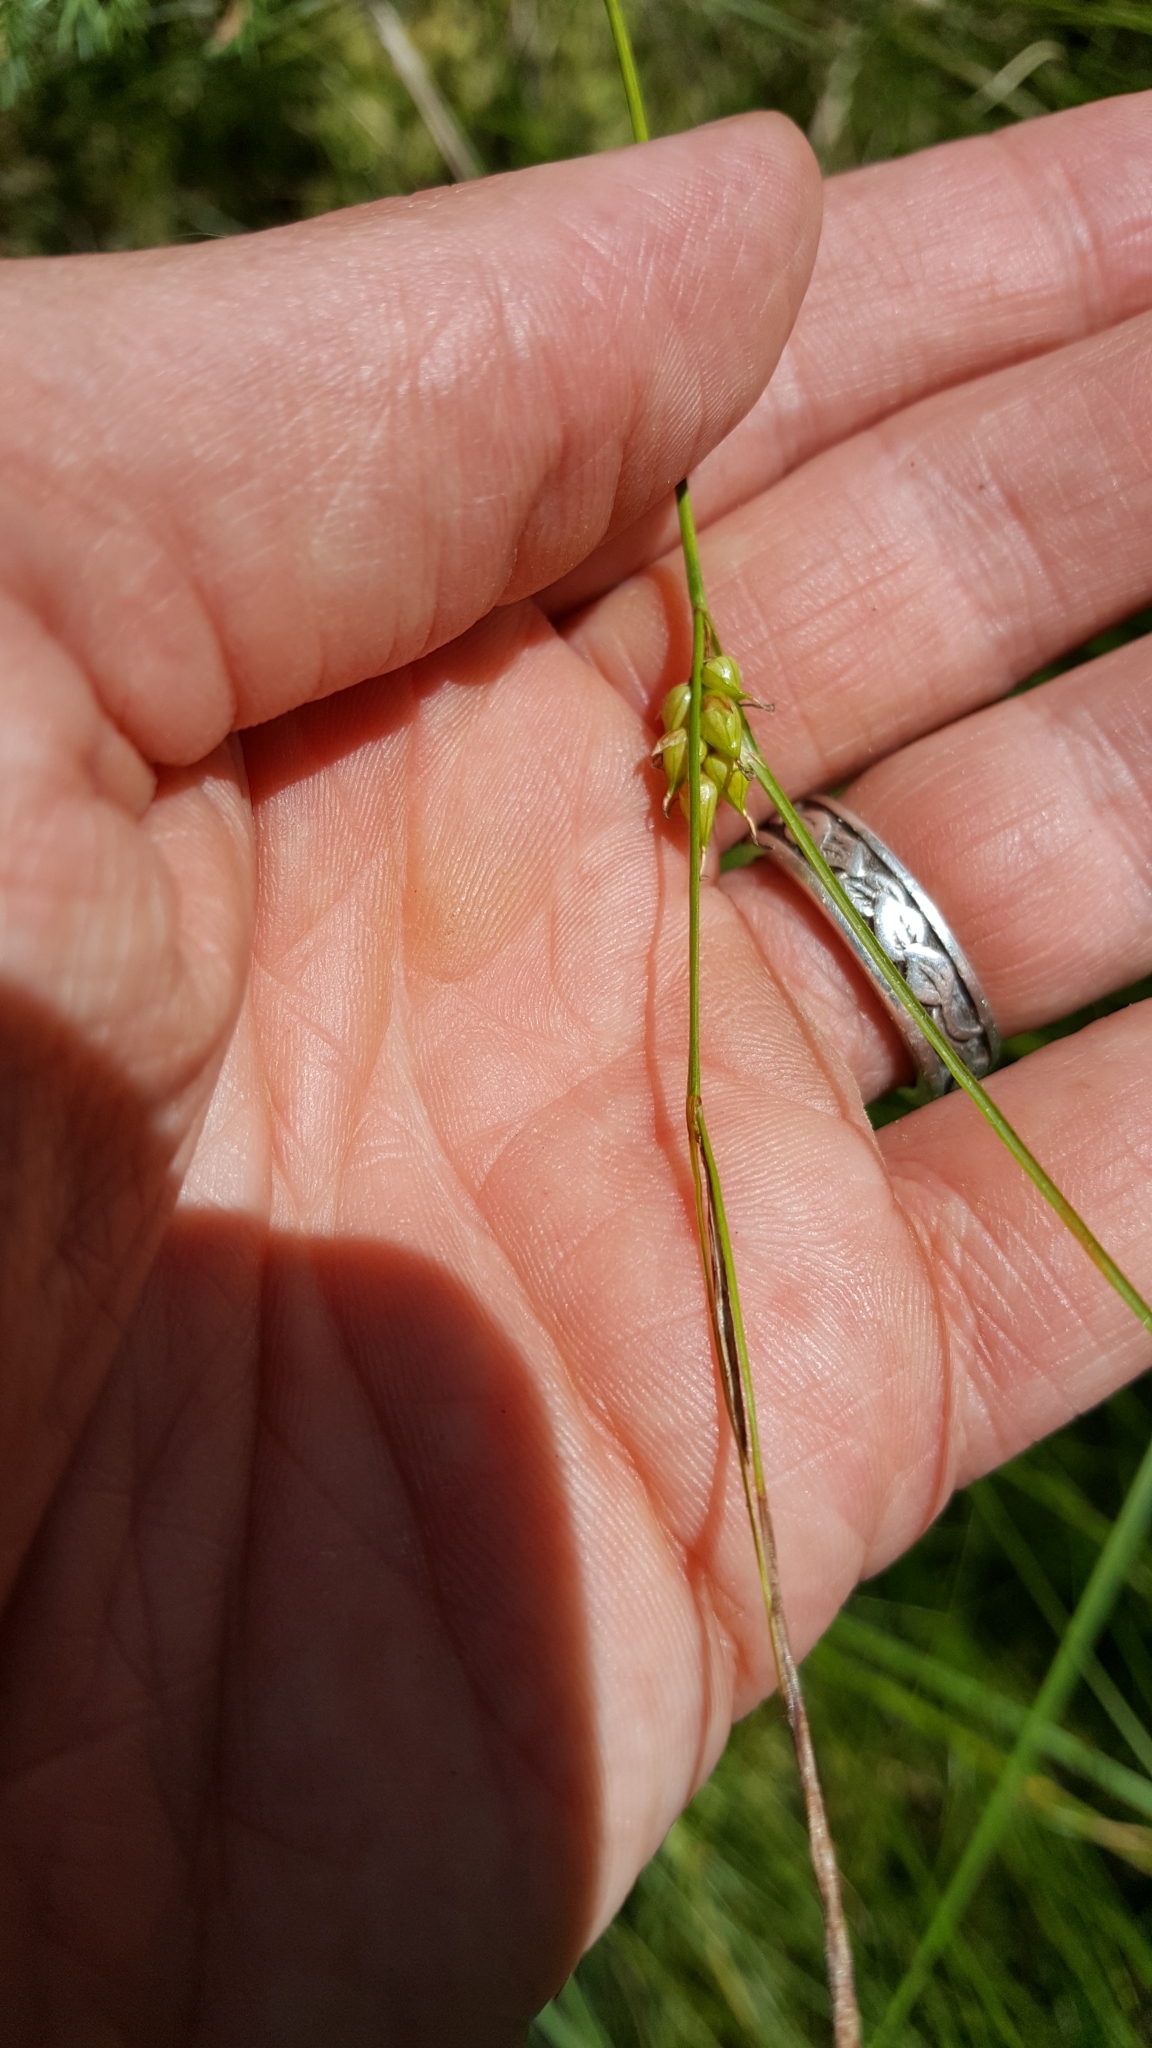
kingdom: Plantae
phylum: Tracheophyta
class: Liliopsida
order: Poales
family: Cyperaceae
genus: Carex
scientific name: Carex oligosperma
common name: Few-seed sedge
